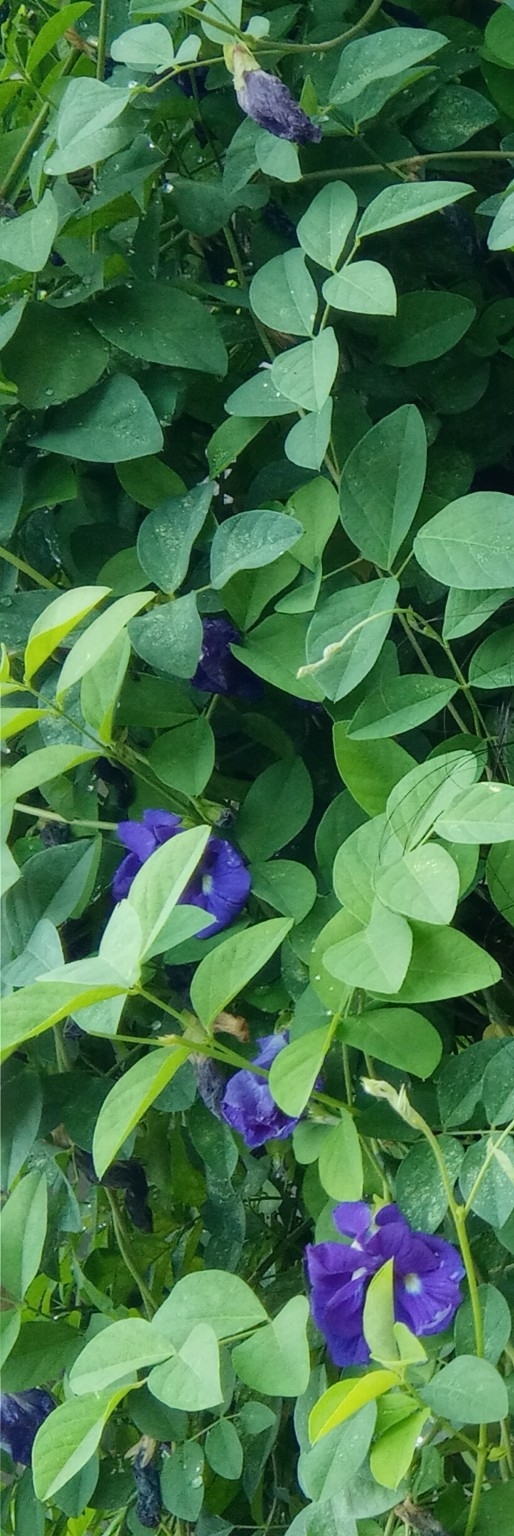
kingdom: Plantae
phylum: Tracheophyta
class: Magnoliopsida
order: Fabales
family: Fabaceae
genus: Clitoria
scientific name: Clitoria ternatea
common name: Asian pigeonwings
